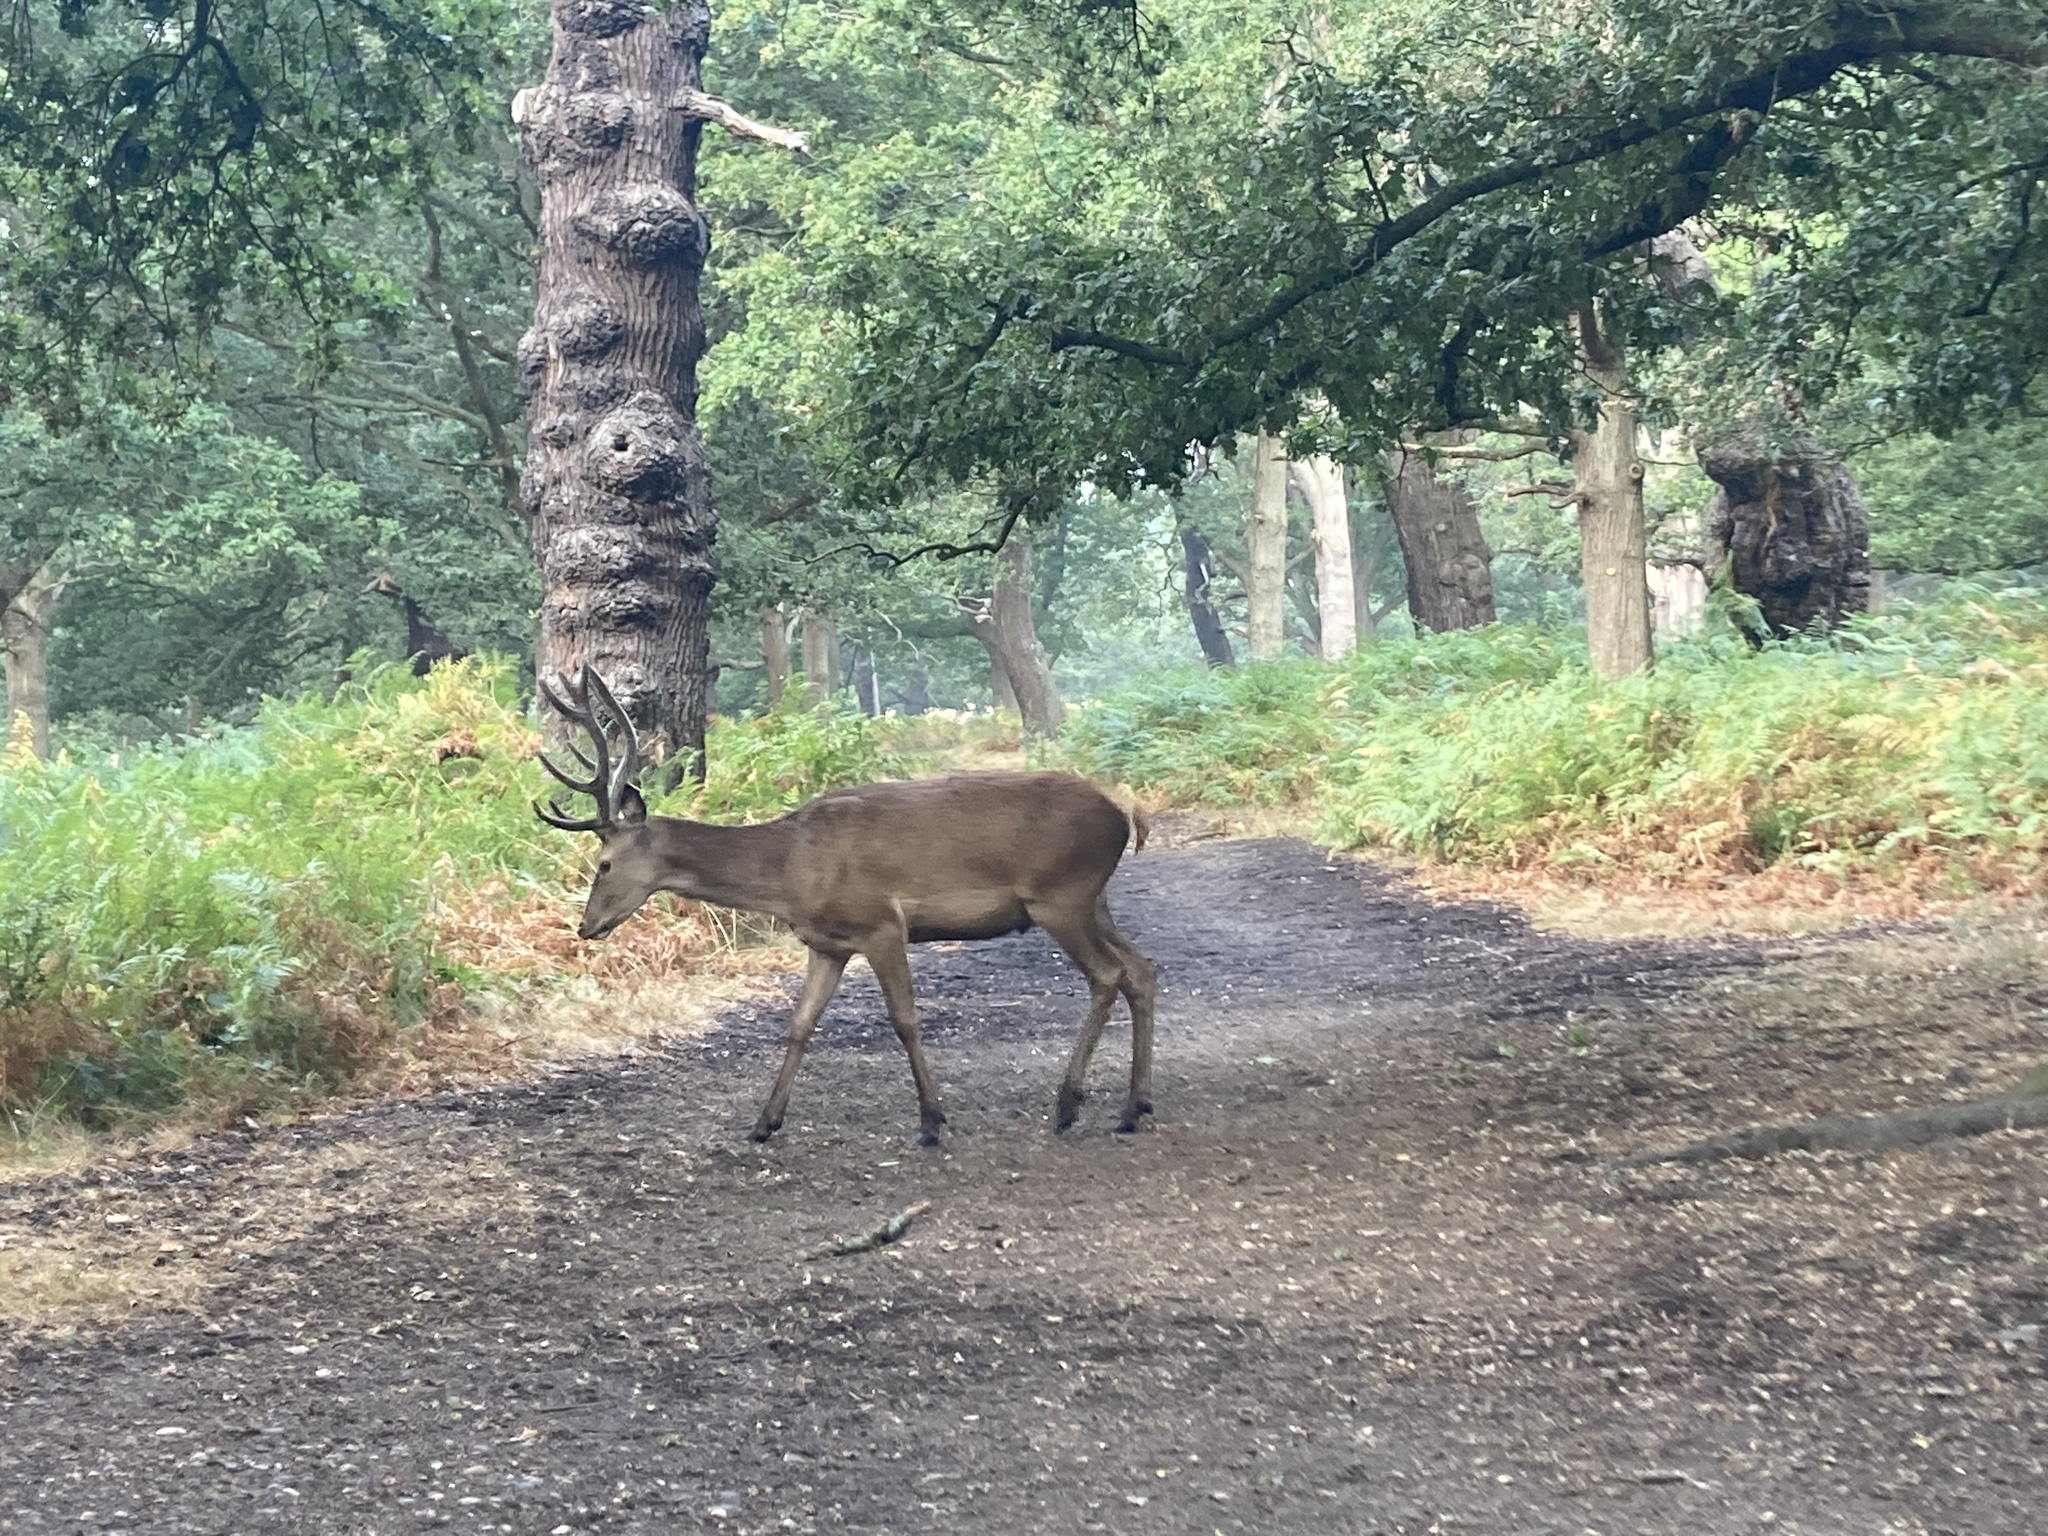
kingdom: Animalia
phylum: Chordata
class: Mammalia
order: Artiodactyla
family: Cervidae
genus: Cervus
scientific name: Cervus elaphus
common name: Red deer
